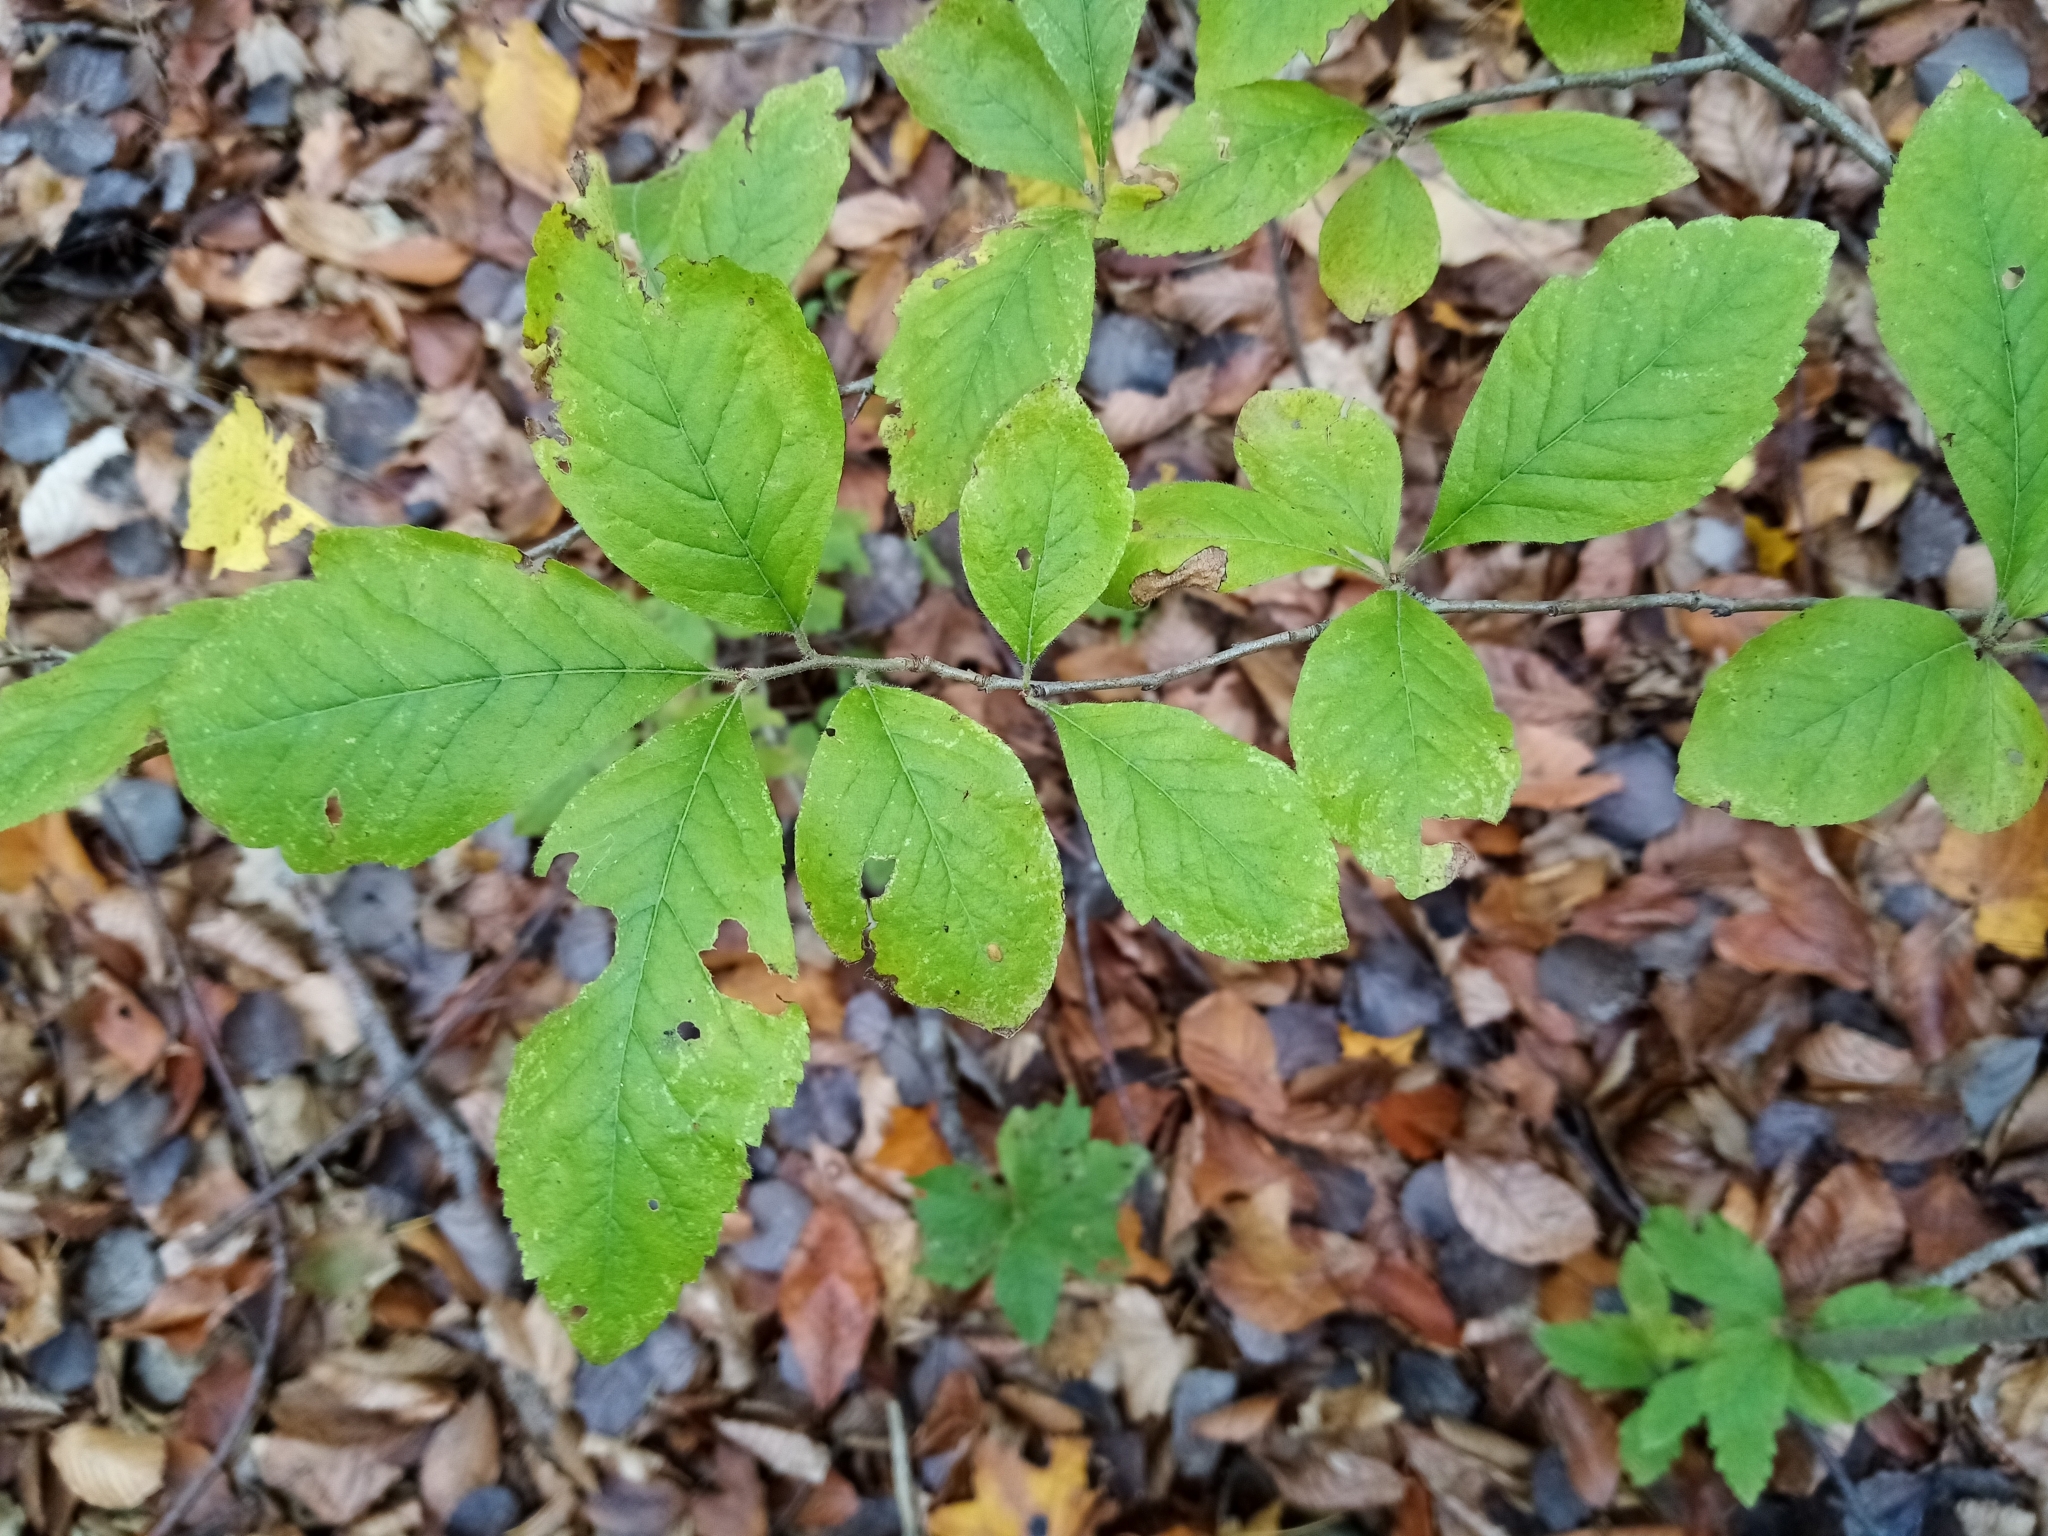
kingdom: Plantae
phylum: Tracheophyta
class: Magnoliopsida
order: Rosales
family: Rosaceae
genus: Mespilus
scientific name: Mespilus germanica
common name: Medlar
